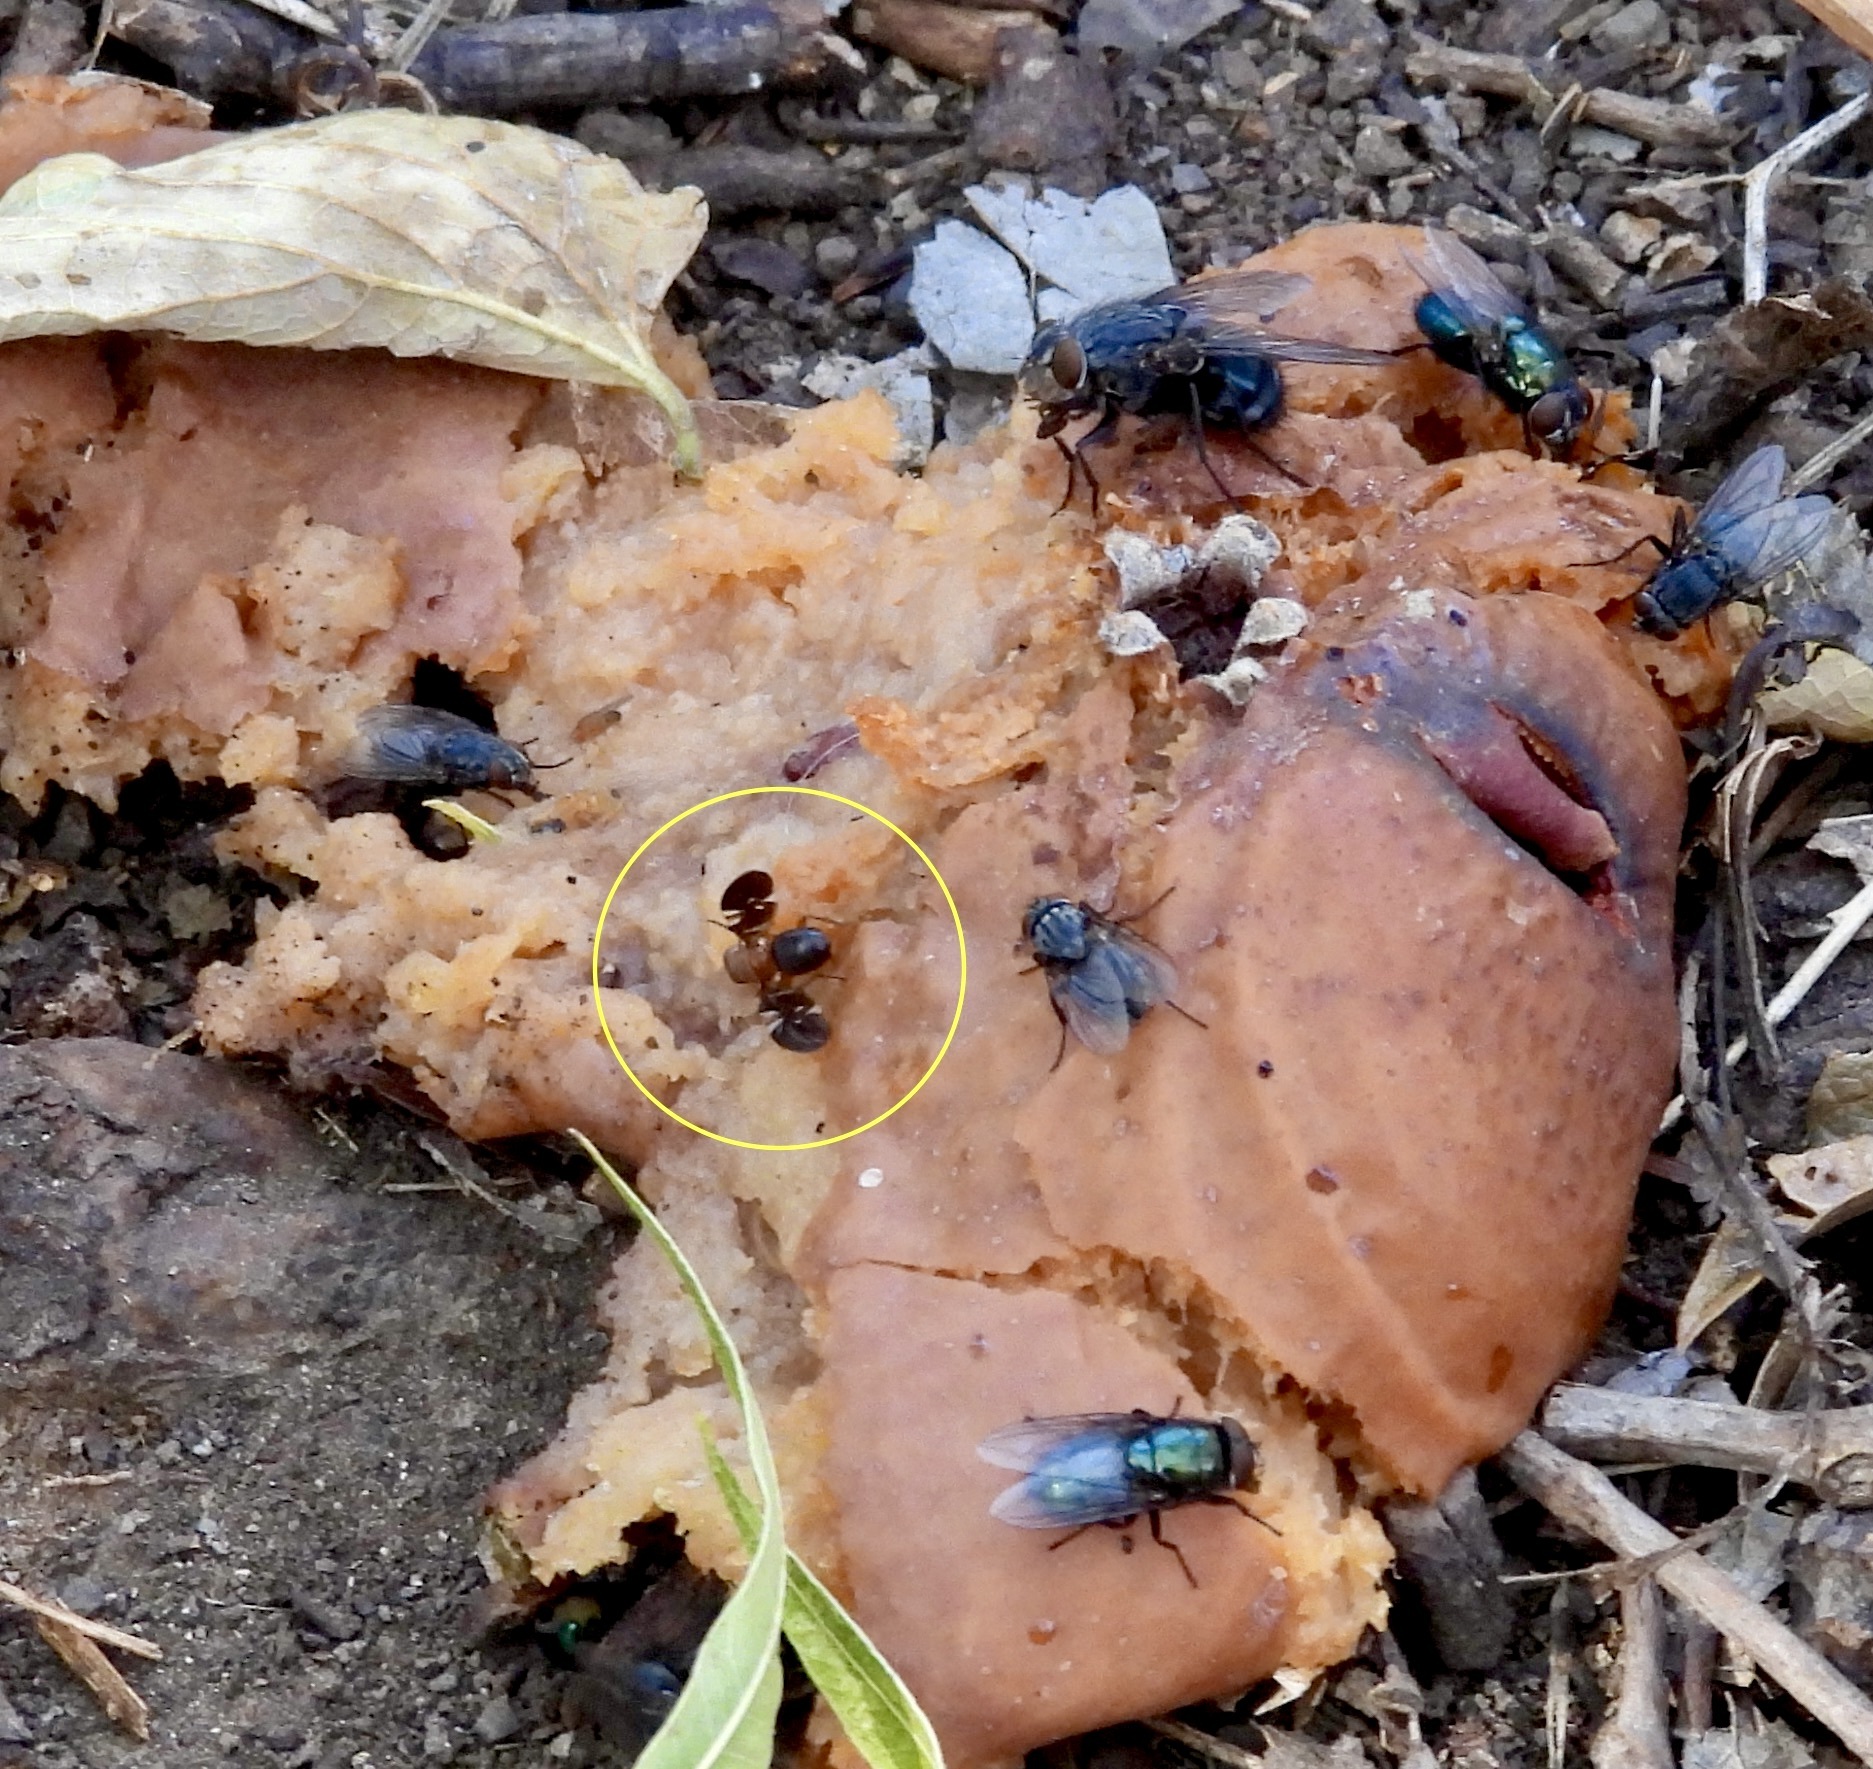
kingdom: Animalia
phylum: Arthropoda
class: Insecta
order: Diptera
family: Ulidiidae
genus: Delphinia
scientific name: Delphinia picta
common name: Common picture-winged fly
